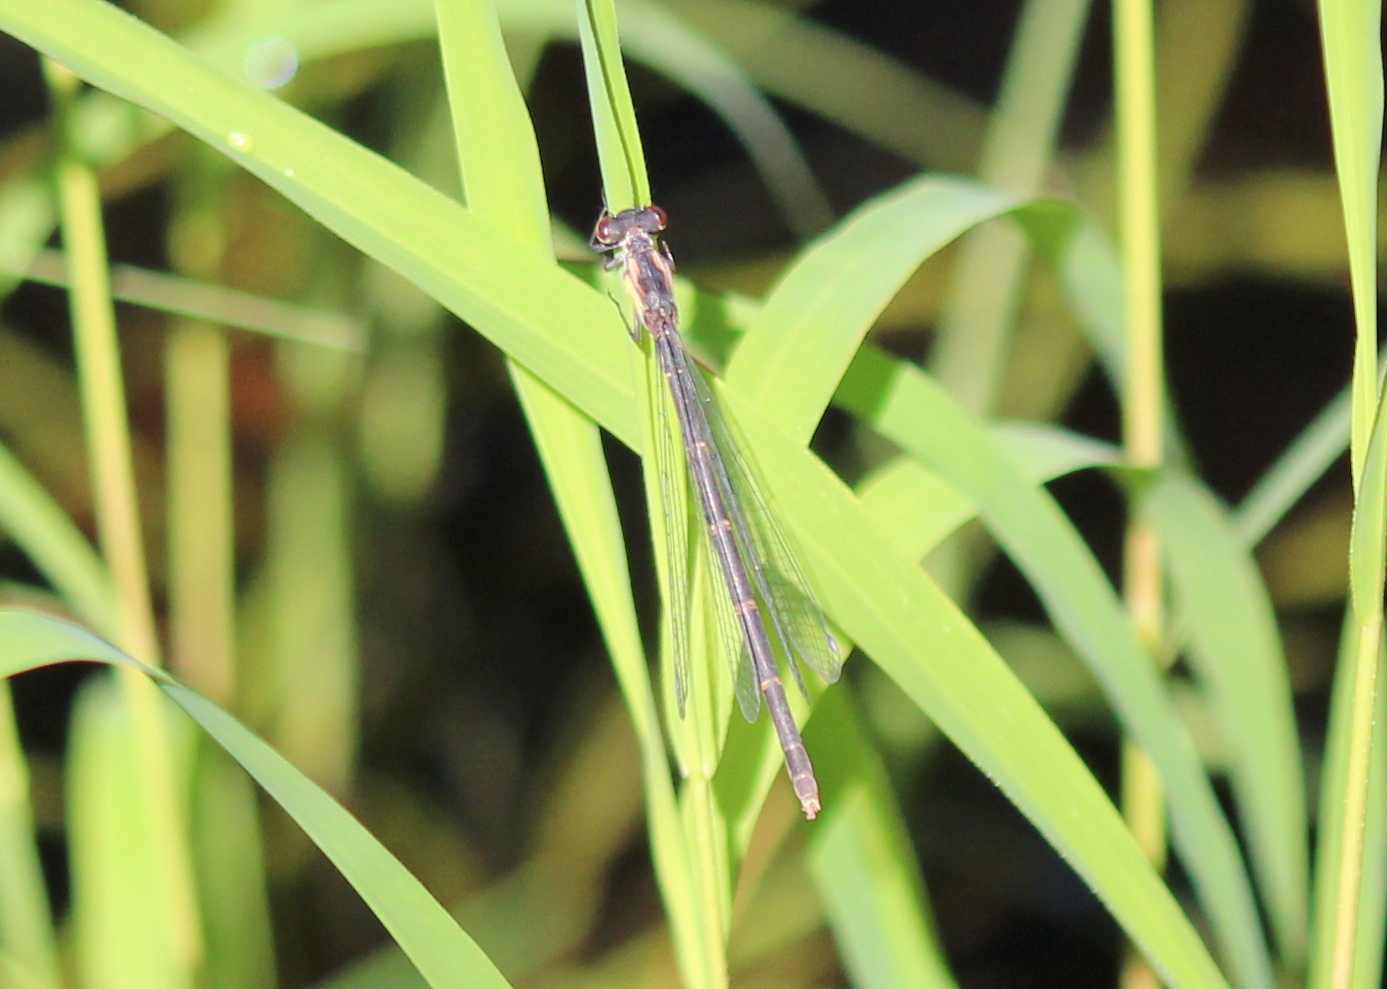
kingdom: Animalia
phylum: Arthropoda
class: Insecta
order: Odonata
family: Coenagrionidae
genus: Chromagrion
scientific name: Chromagrion conditum
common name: Aurora damsel
